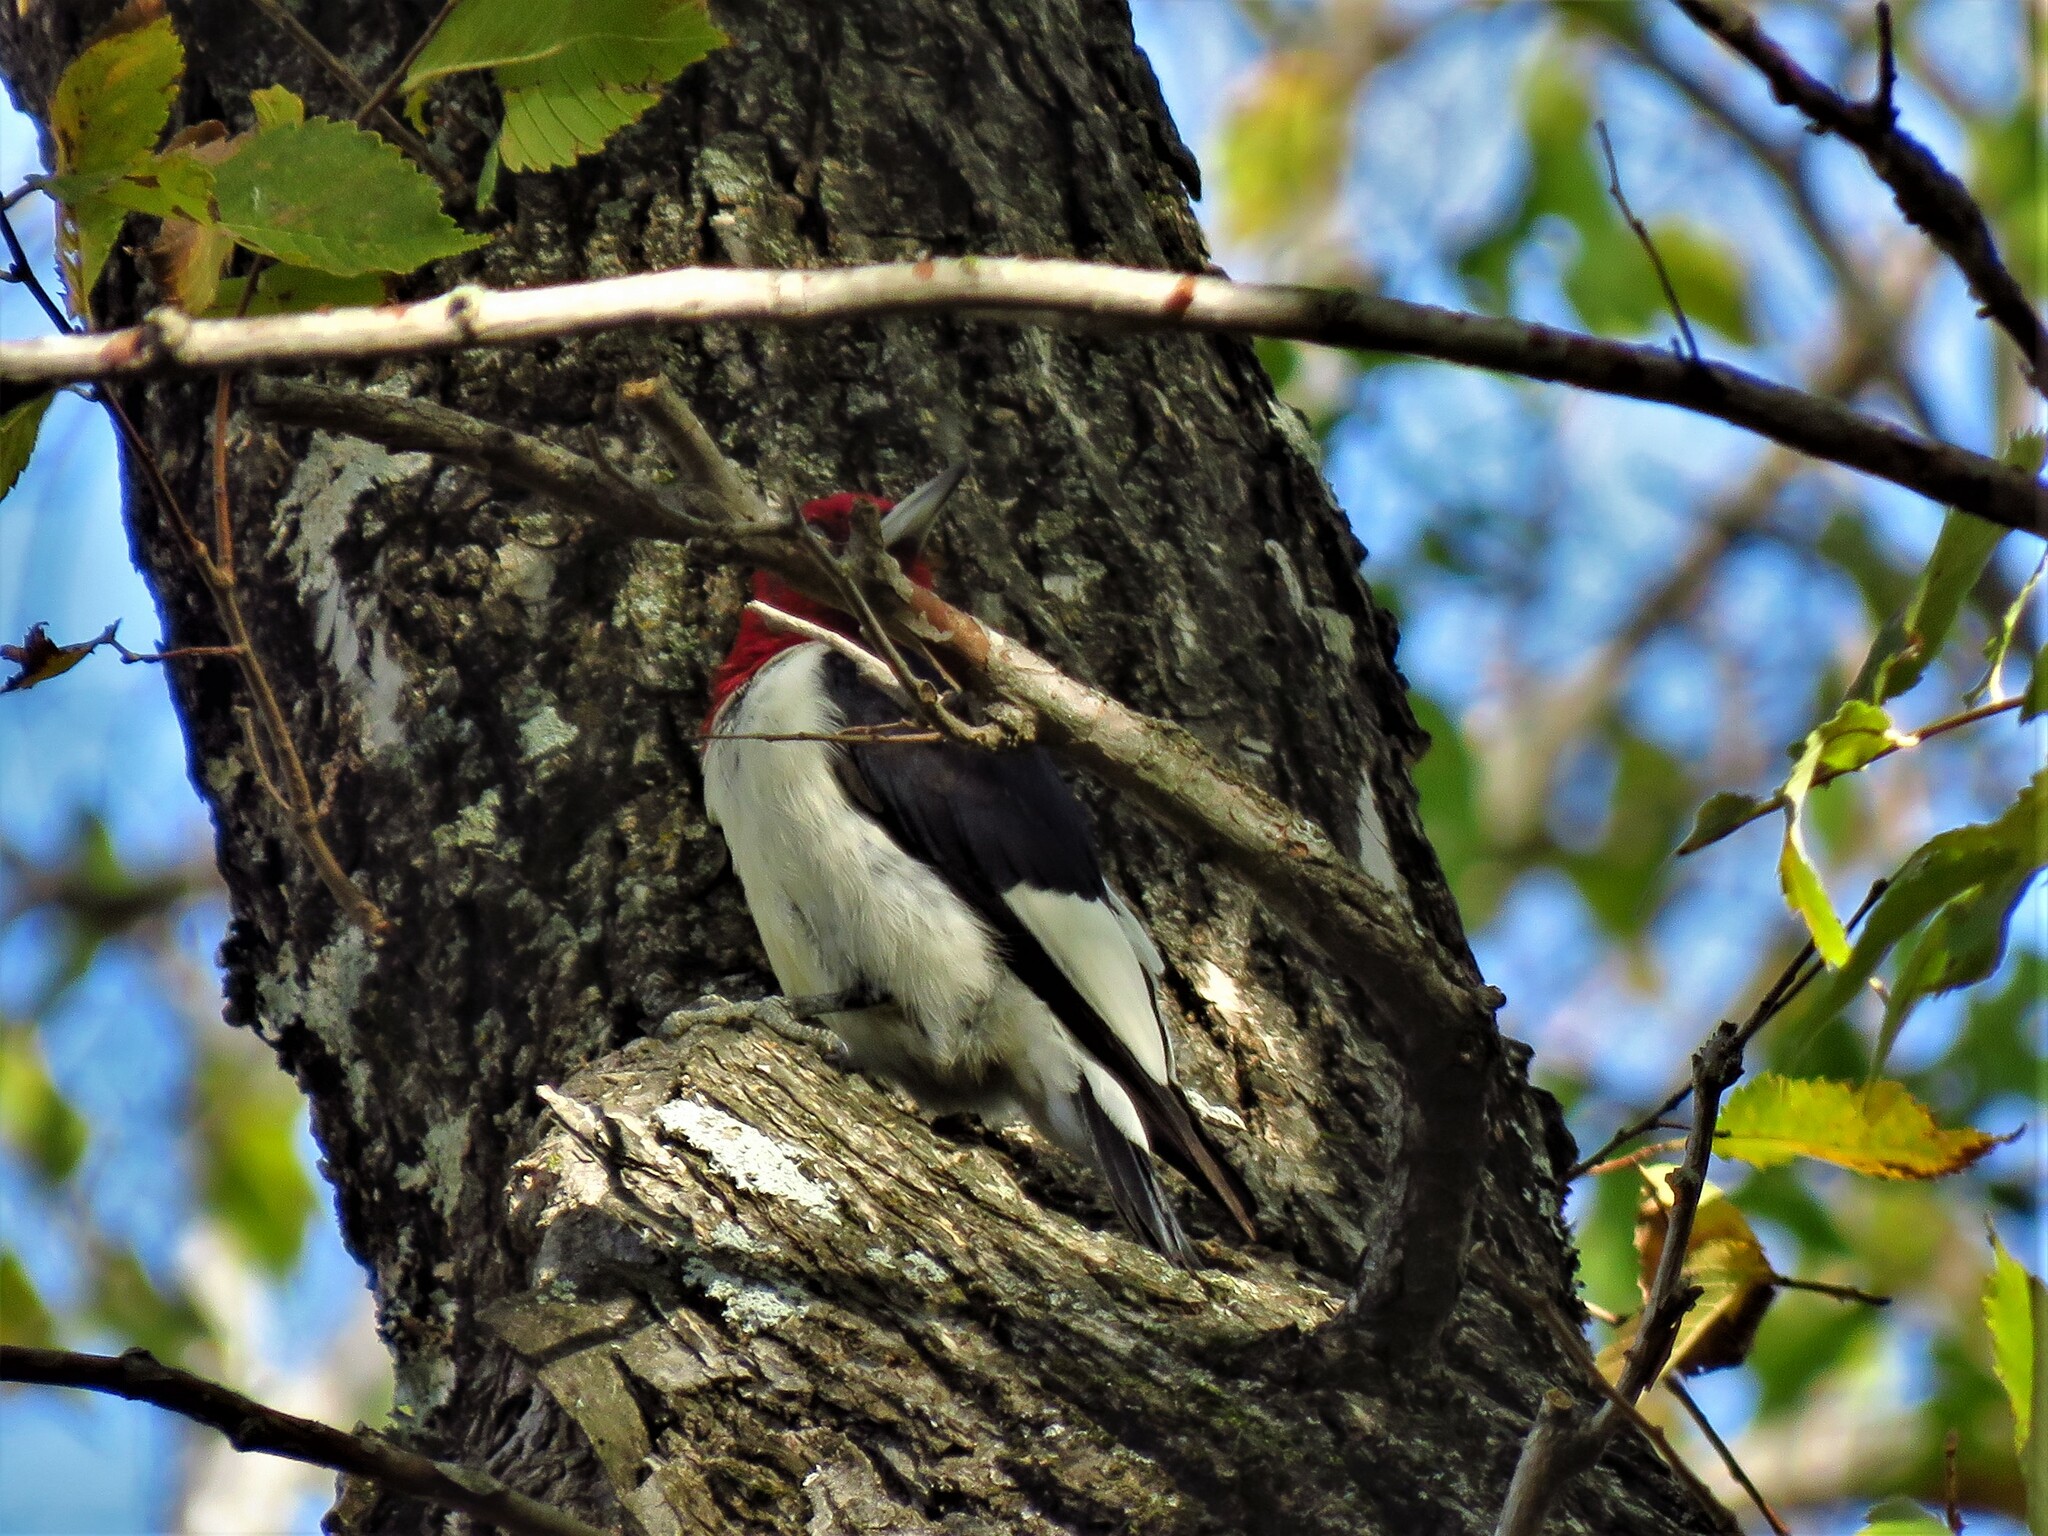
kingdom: Animalia
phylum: Chordata
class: Aves
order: Piciformes
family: Picidae
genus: Melanerpes
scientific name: Melanerpes erythrocephalus
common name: Red-headed woodpecker
